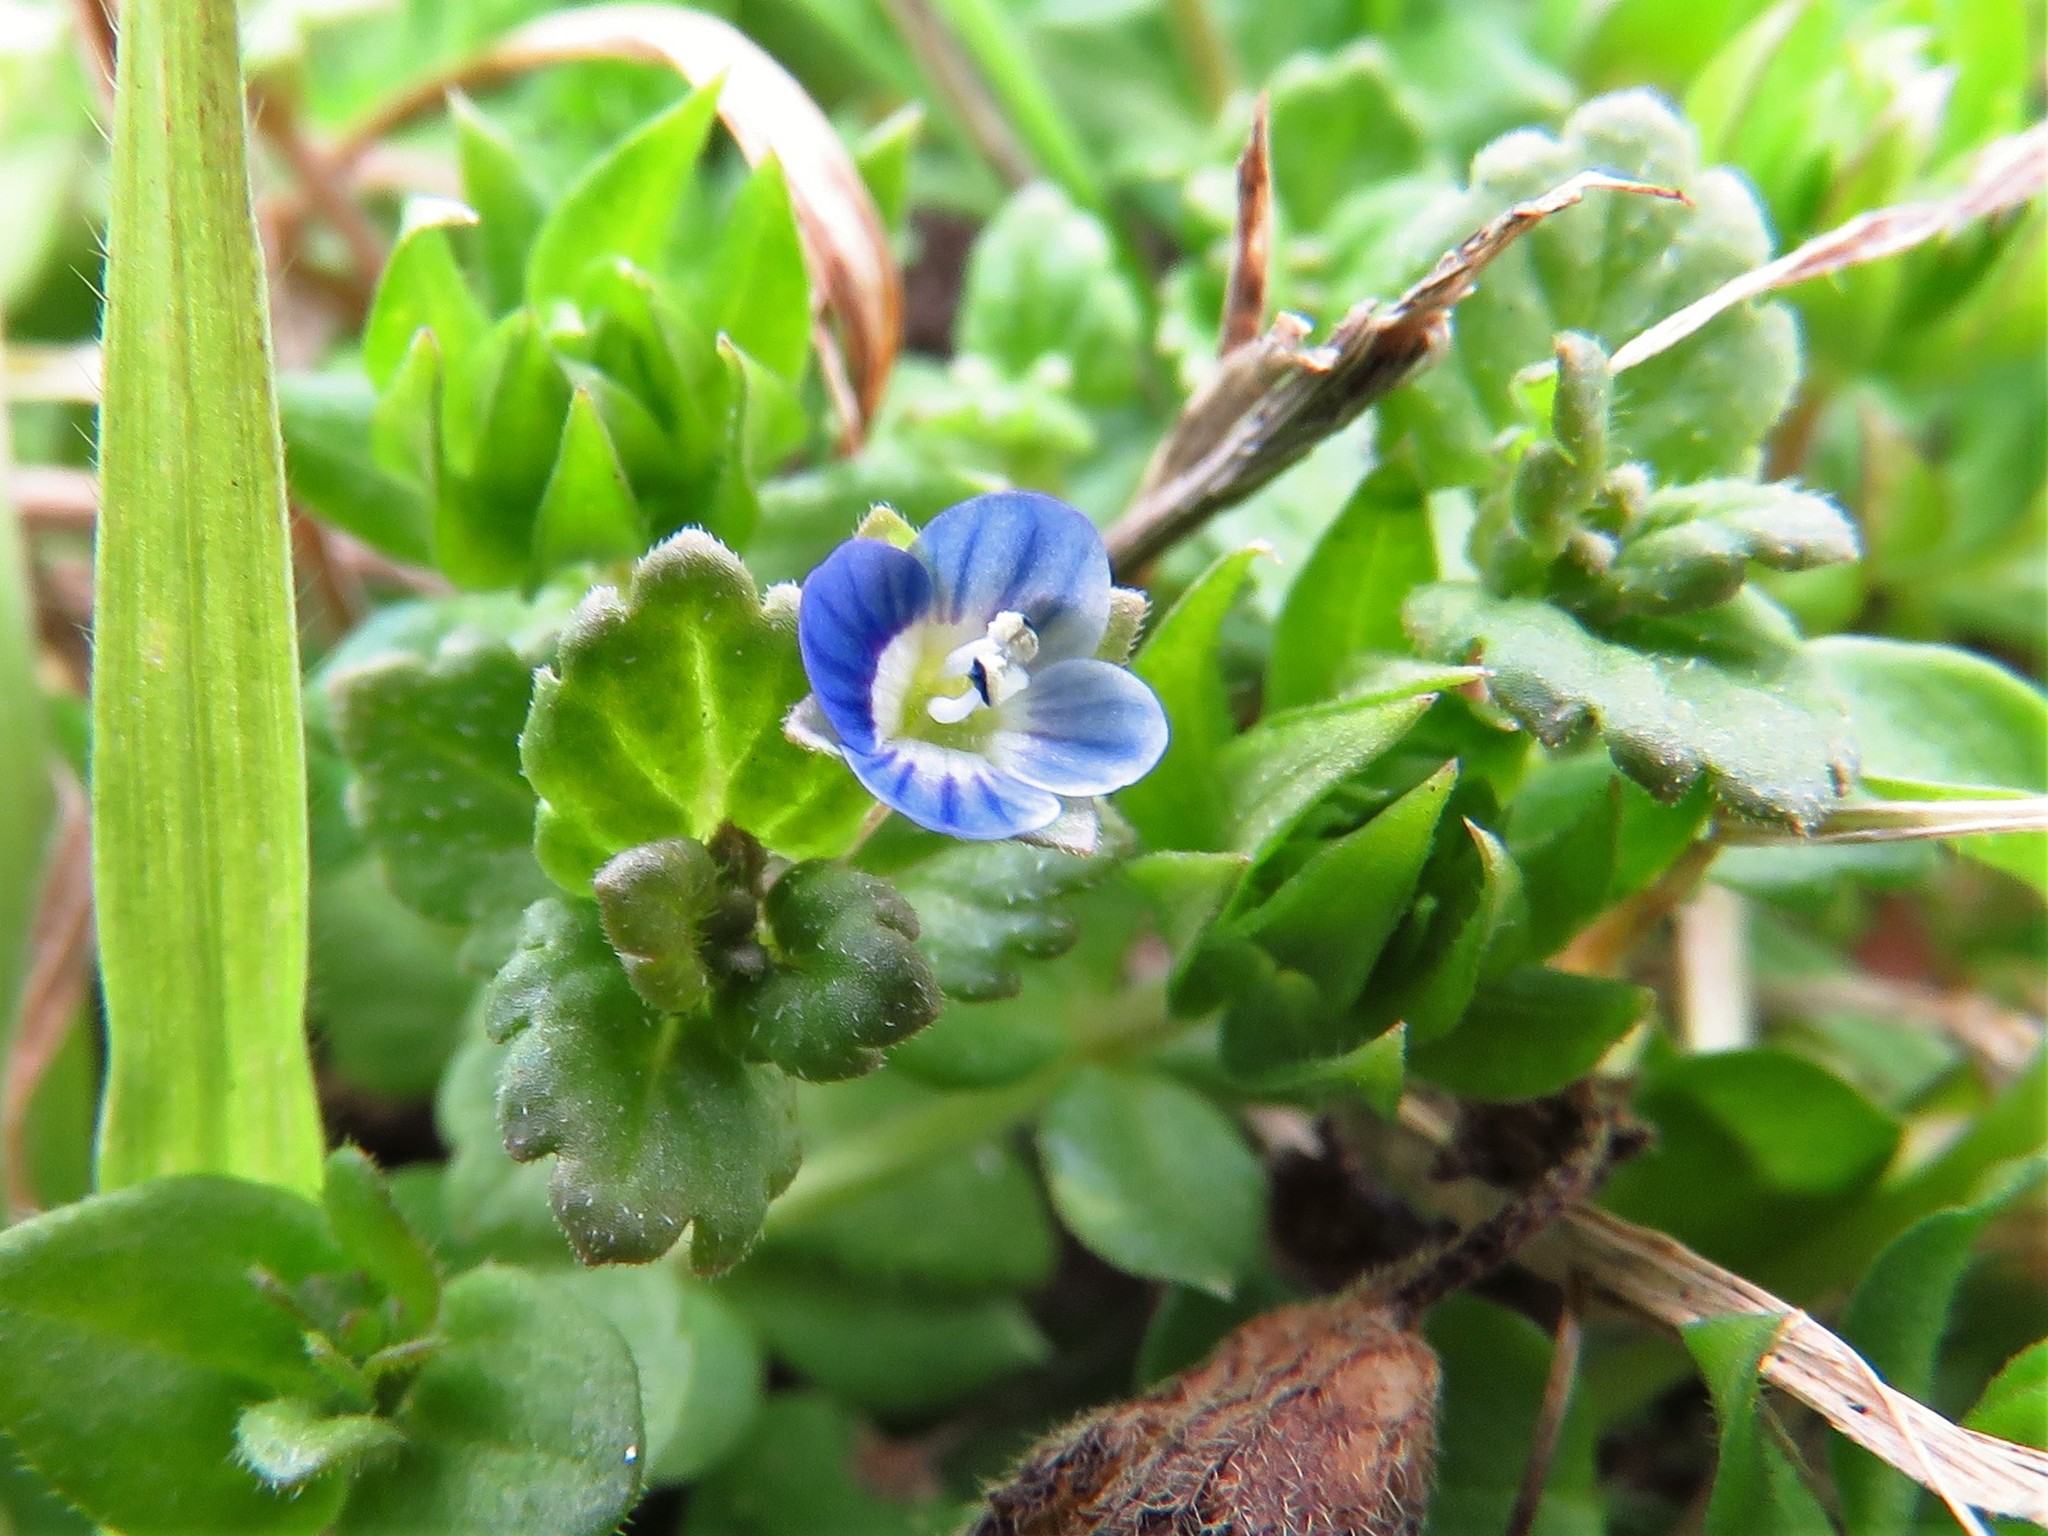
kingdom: Plantae
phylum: Tracheophyta
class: Magnoliopsida
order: Lamiales
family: Plantaginaceae
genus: Veronica
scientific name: Veronica polita
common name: Grey field-speedwell
